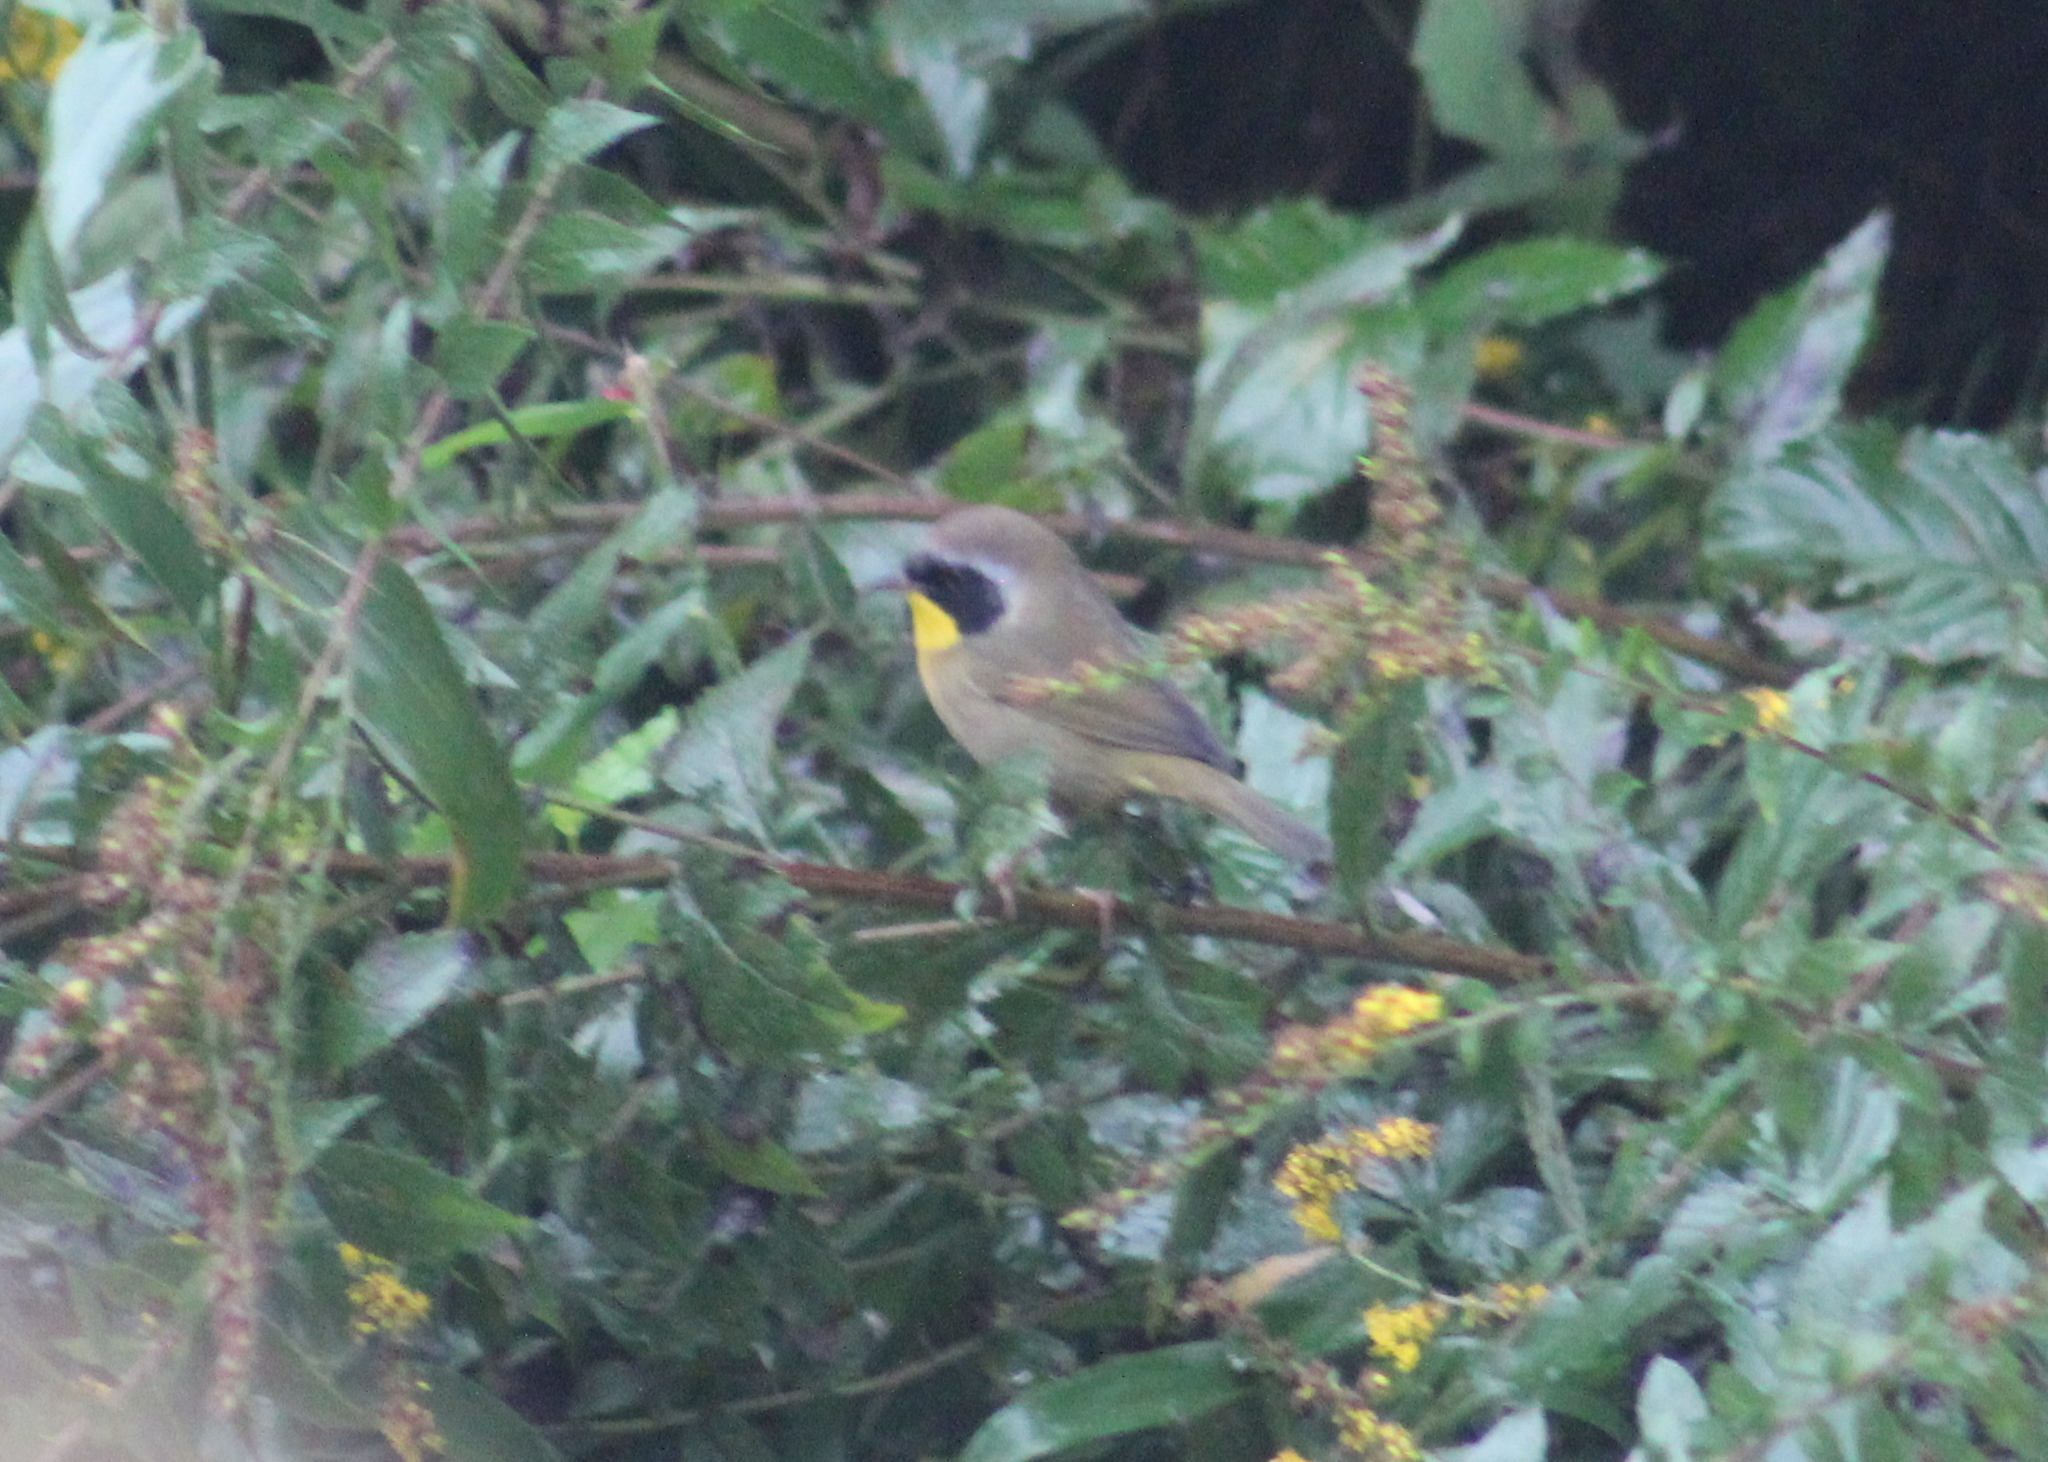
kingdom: Animalia
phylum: Chordata
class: Aves
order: Passeriformes
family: Parulidae
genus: Geothlypis
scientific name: Geothlypis trichas
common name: Common yellowthroat
